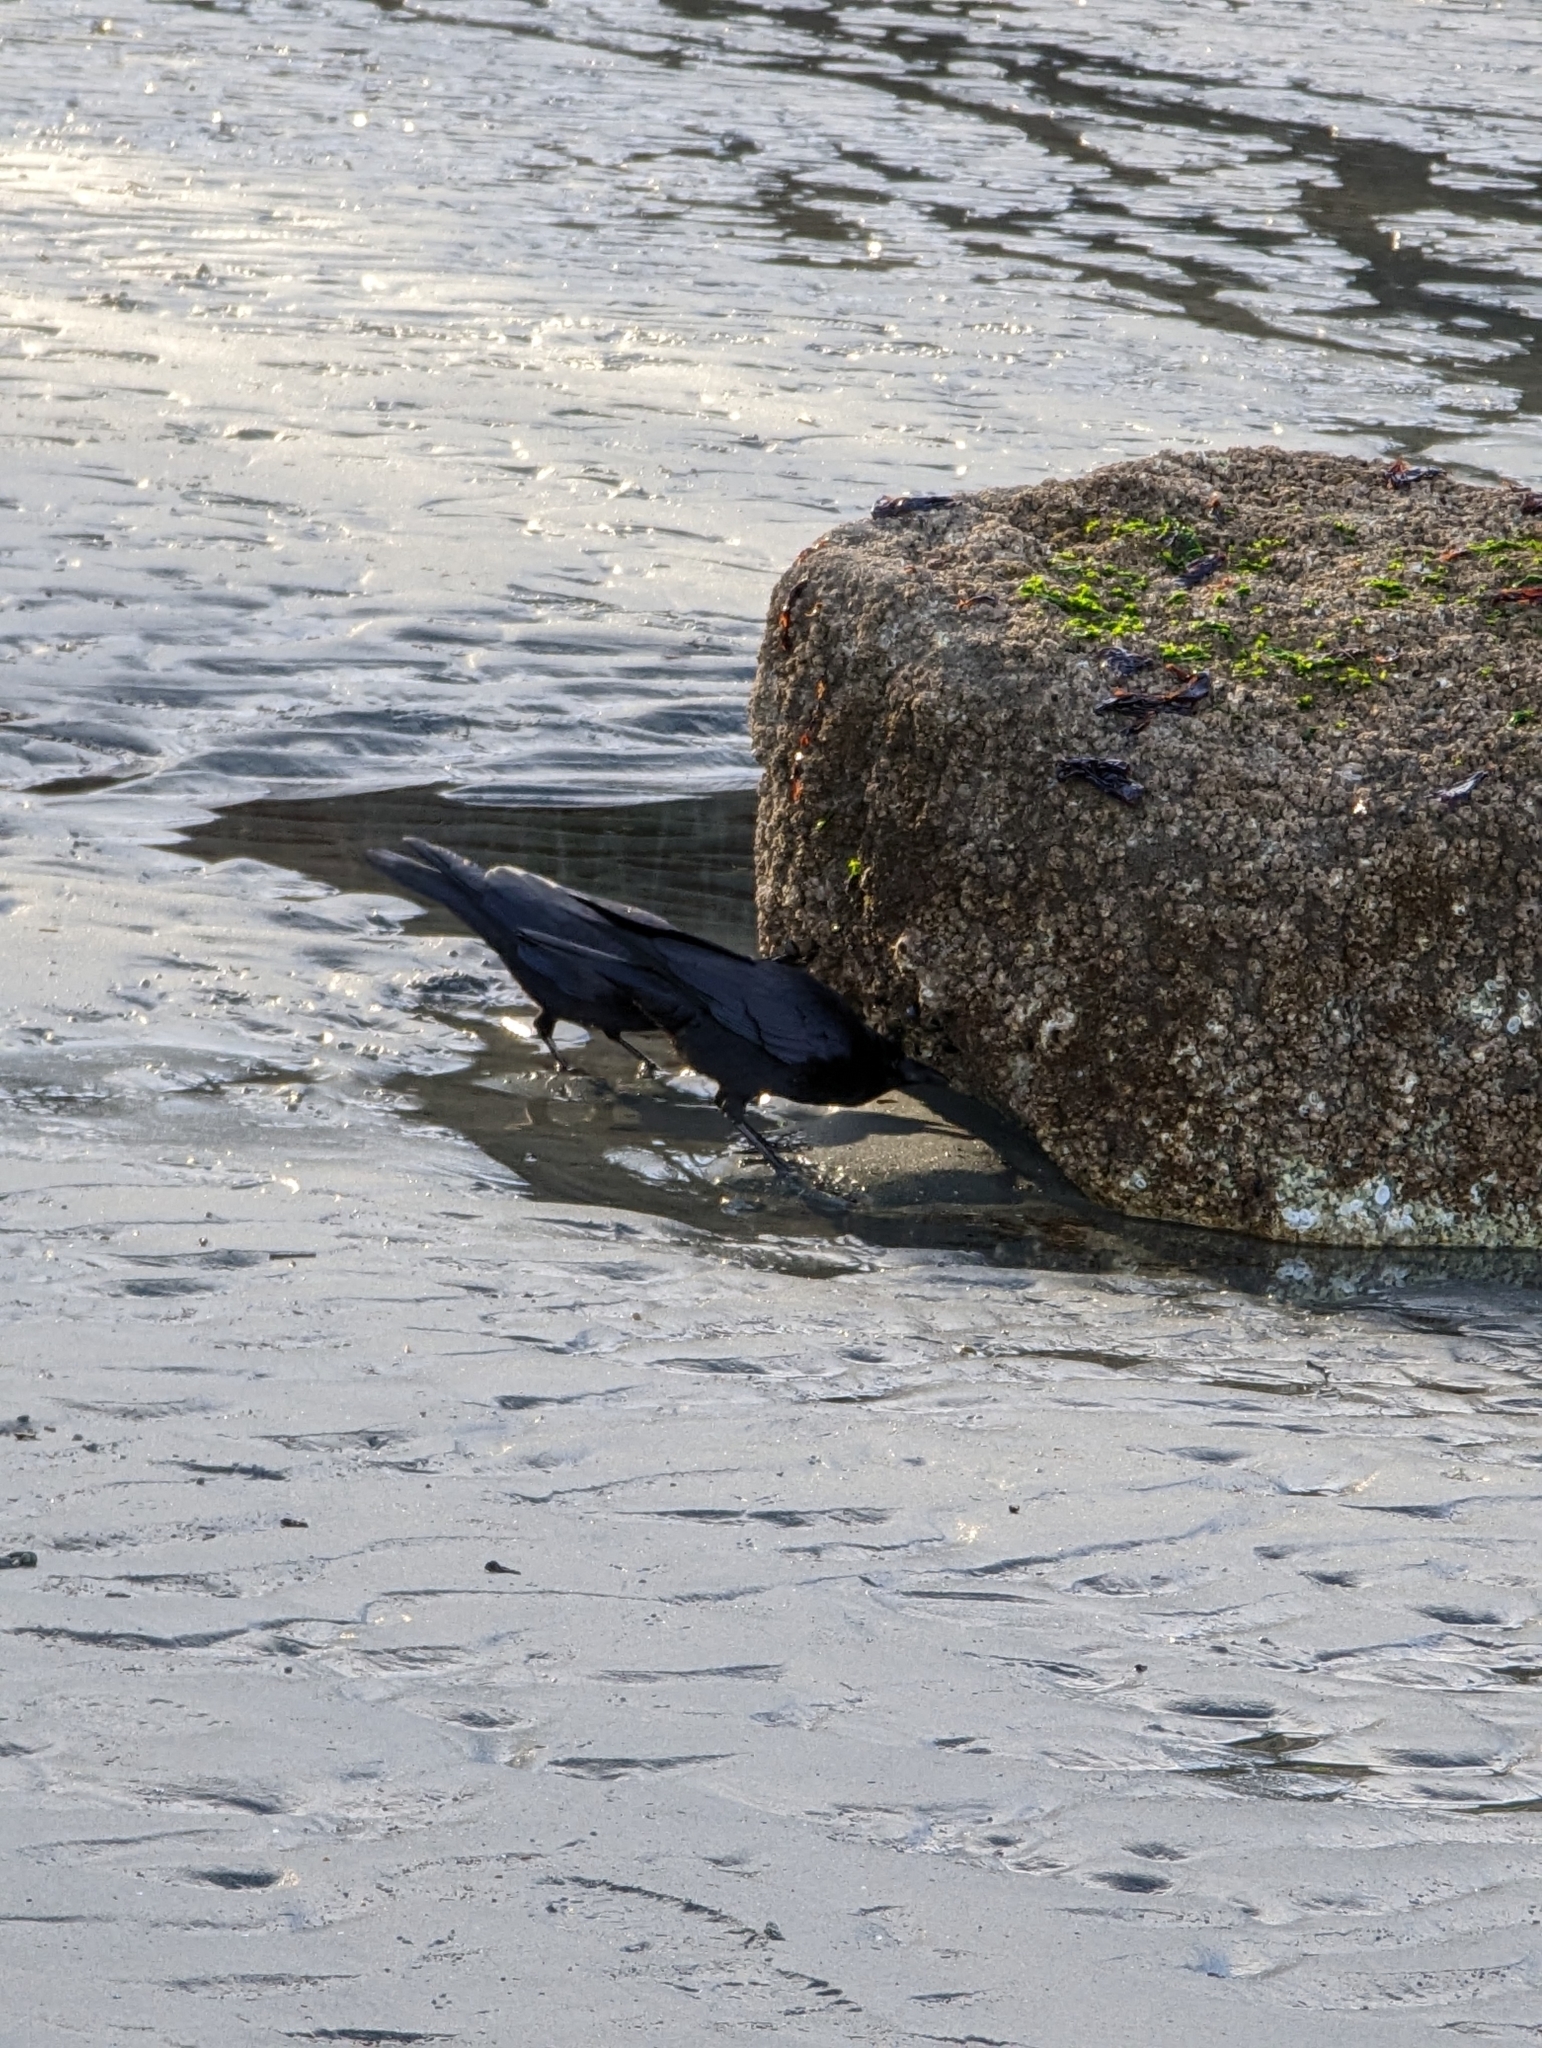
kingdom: Animalia
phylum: Chordata
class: Aves
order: Passeriformes
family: Corvidae
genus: Corvus
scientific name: Corvus brachyrhynchos
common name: American crow
